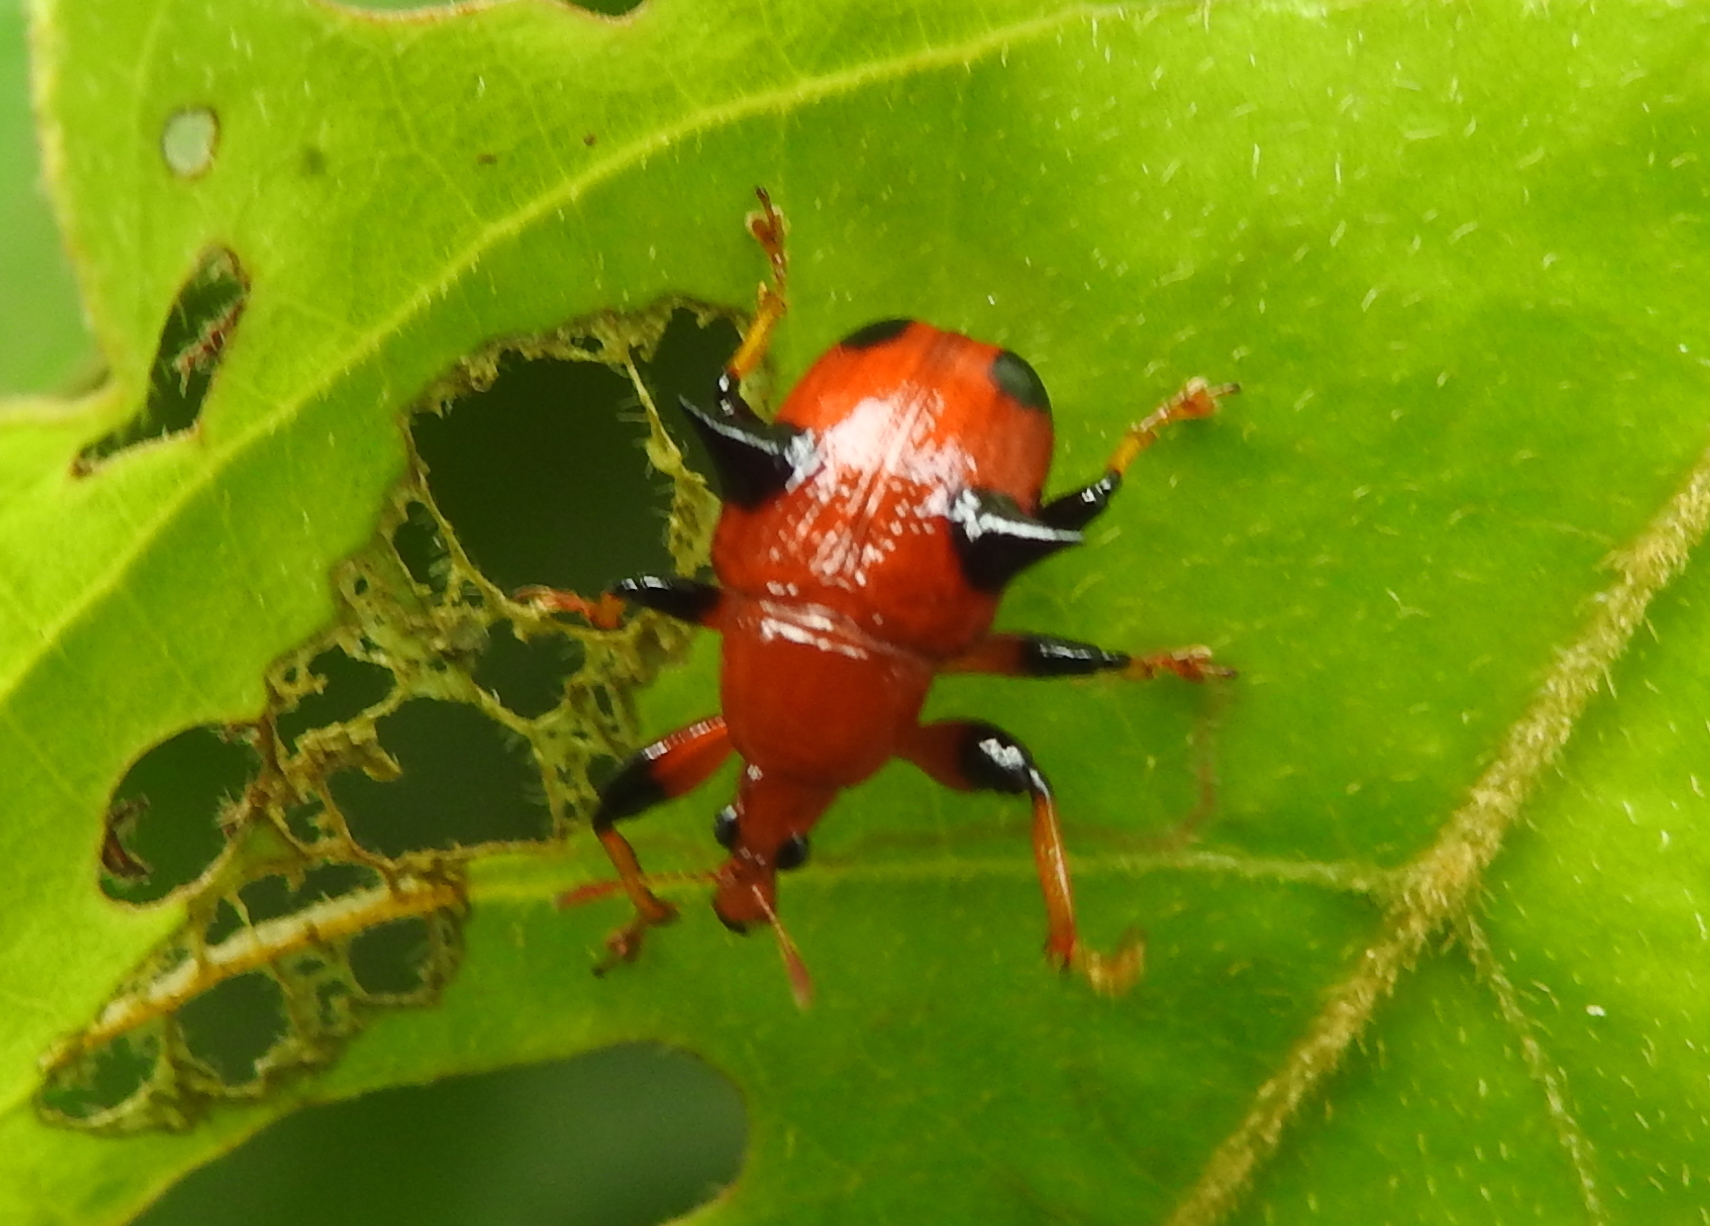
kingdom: Animalia
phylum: Arthropoda
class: Insecta
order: Coleoptera
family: Attelabidae
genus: Lamprolabus
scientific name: Lamprolabus bispinosus
